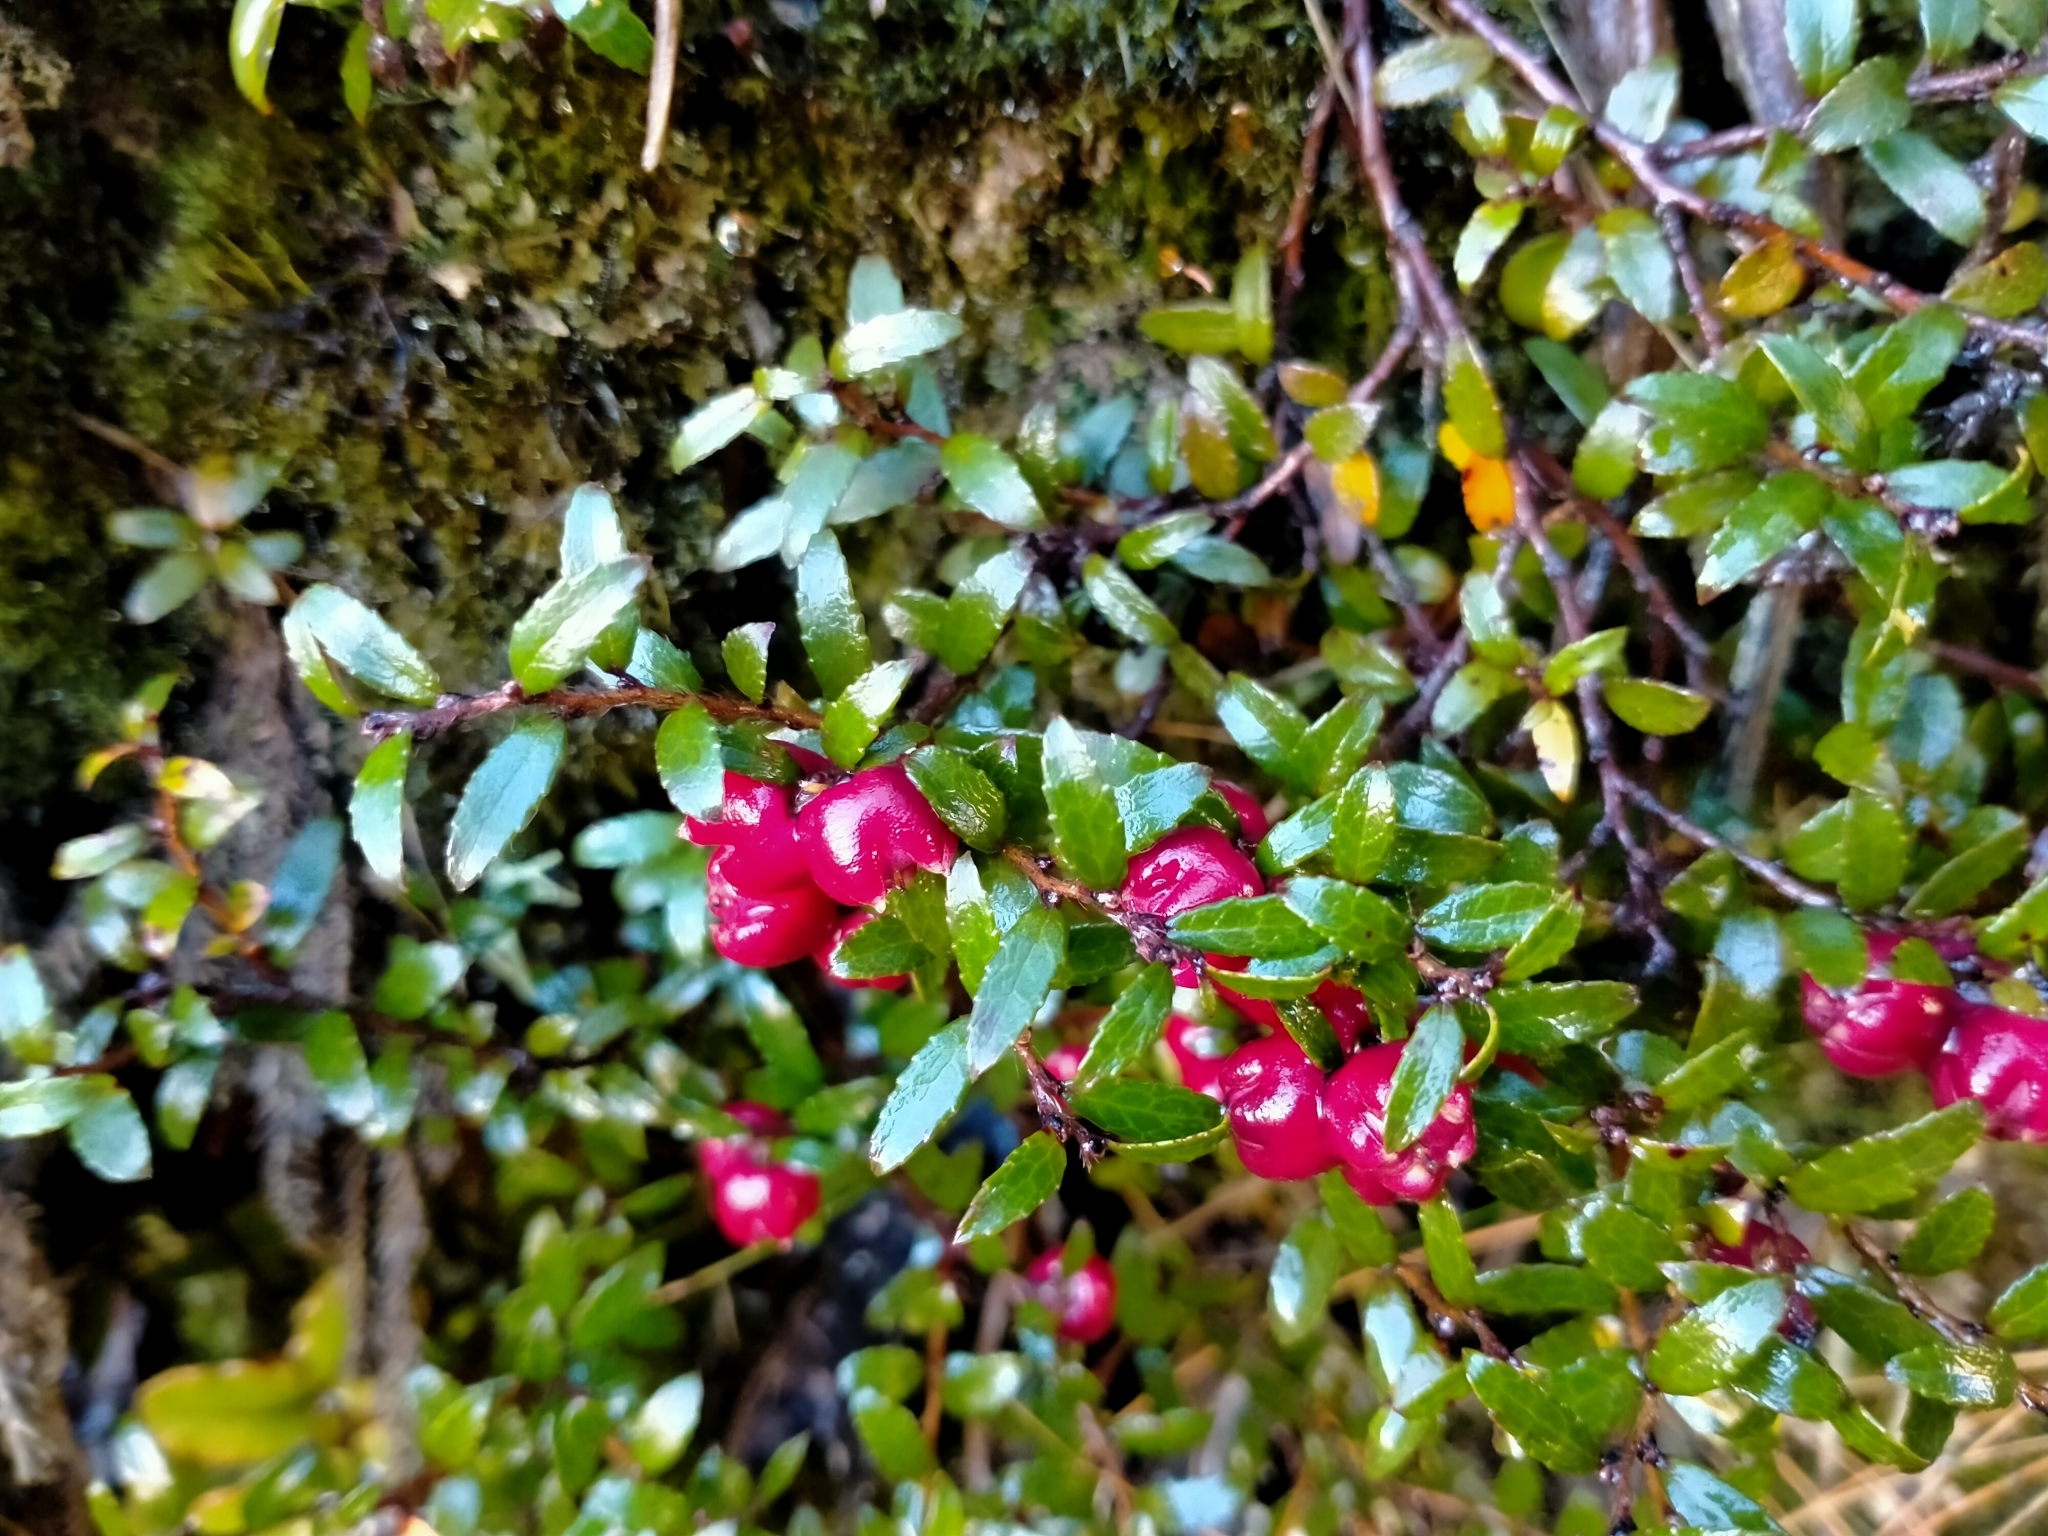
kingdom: Plantae
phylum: Tracheophyta
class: Magnoliopsida
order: Ericales
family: Ericaceae
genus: Gaultheria
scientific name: Gaultheria
